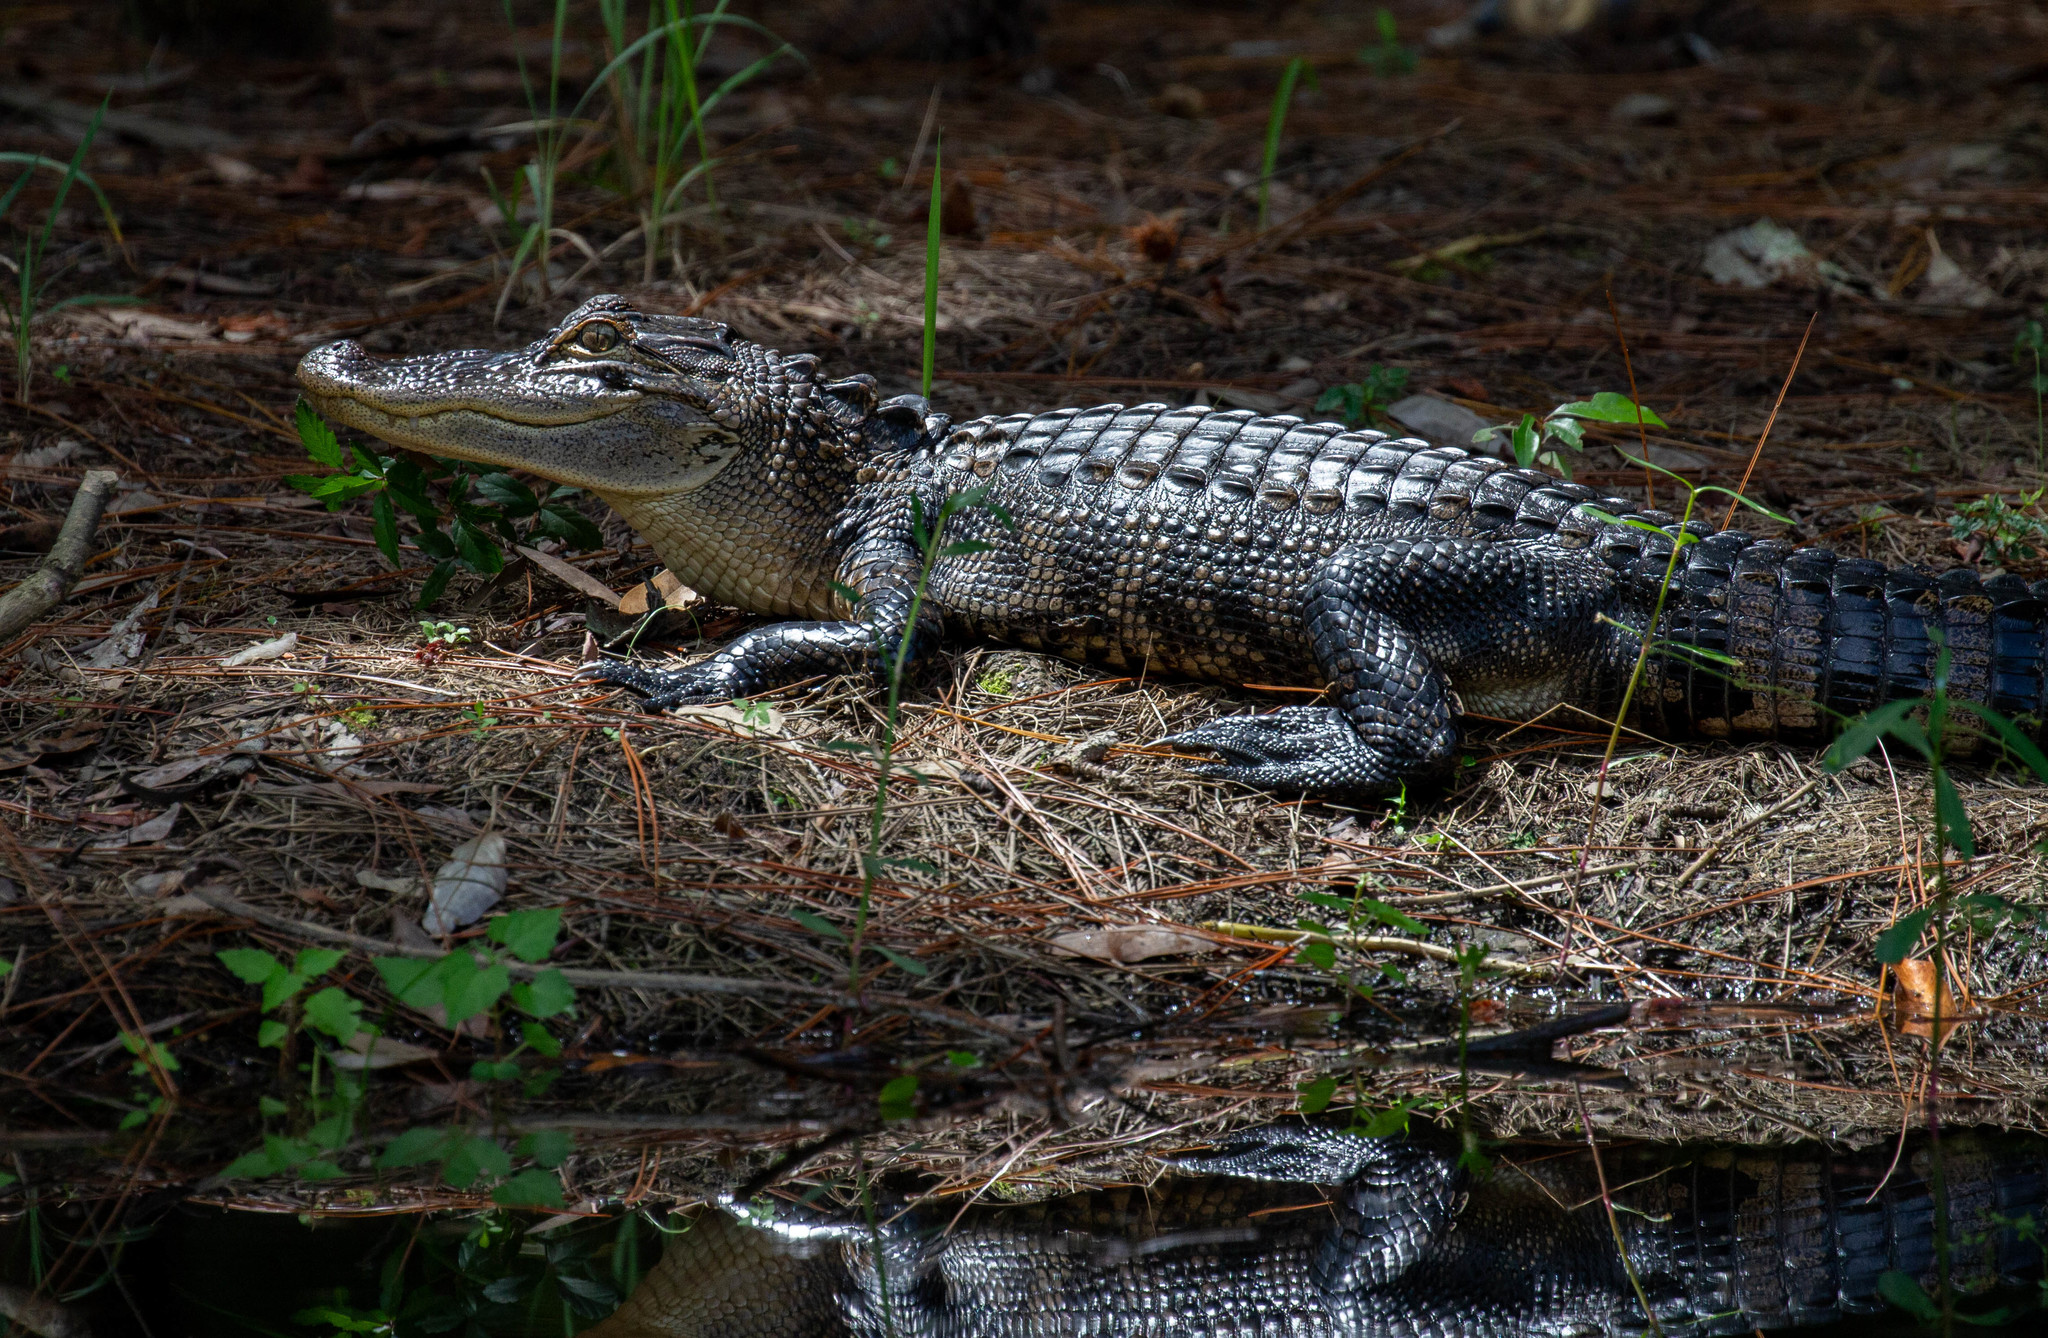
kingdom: Animalia
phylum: Chordata
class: Crocodylia
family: Alligatoridae
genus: Alligator
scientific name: Alligator mississippiensis
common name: American alligator
